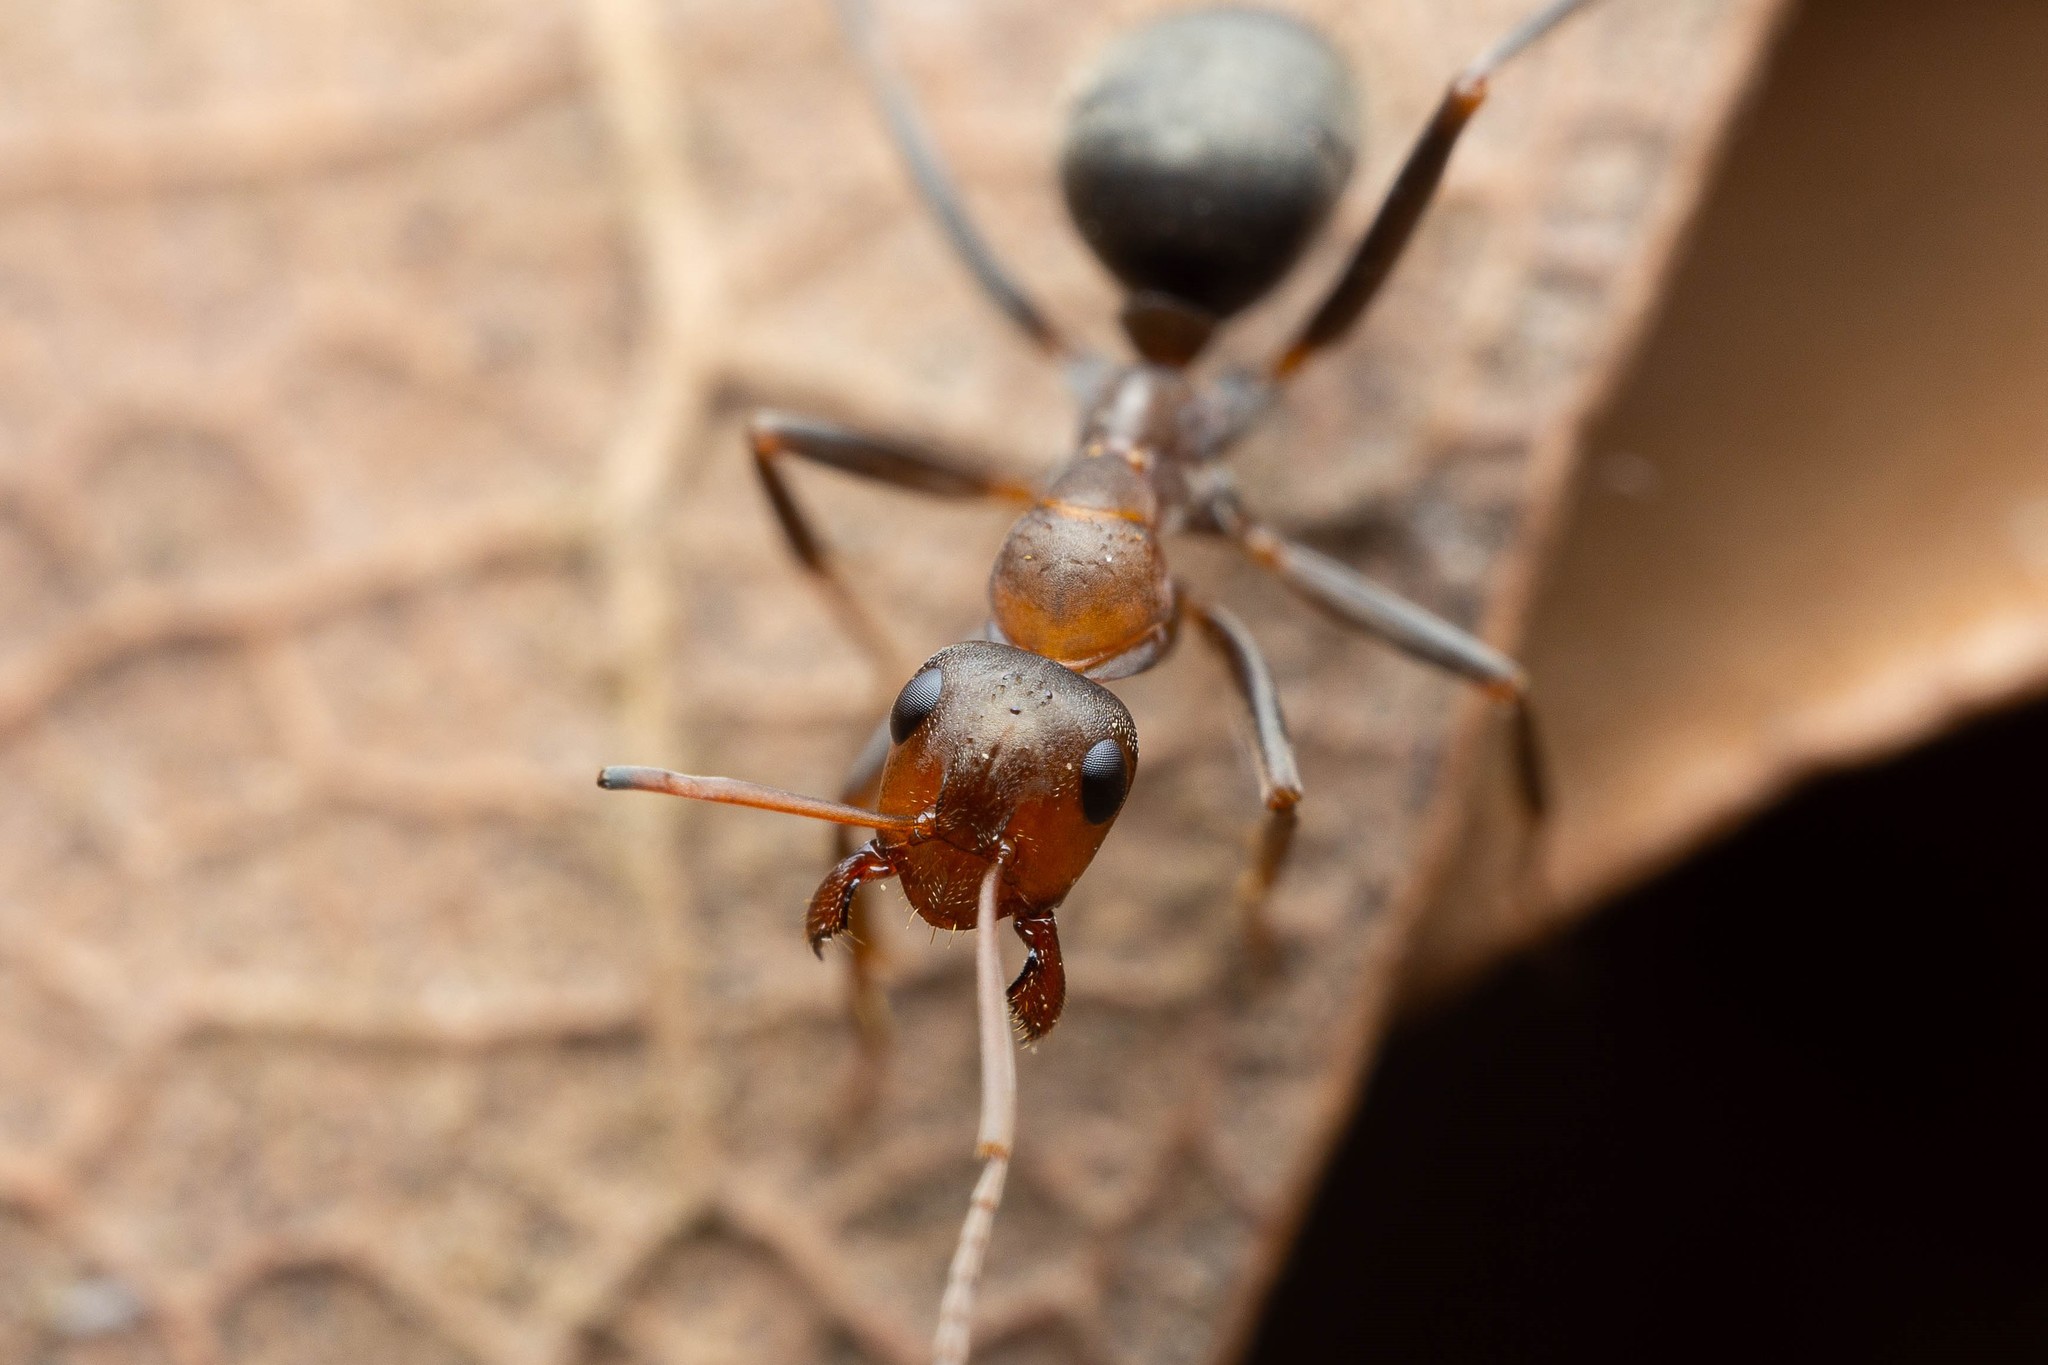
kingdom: Animalia
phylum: Arthropoda
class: Insecta
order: Hymenoptera
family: Formicidae
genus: Formica
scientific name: Formica foreliana
